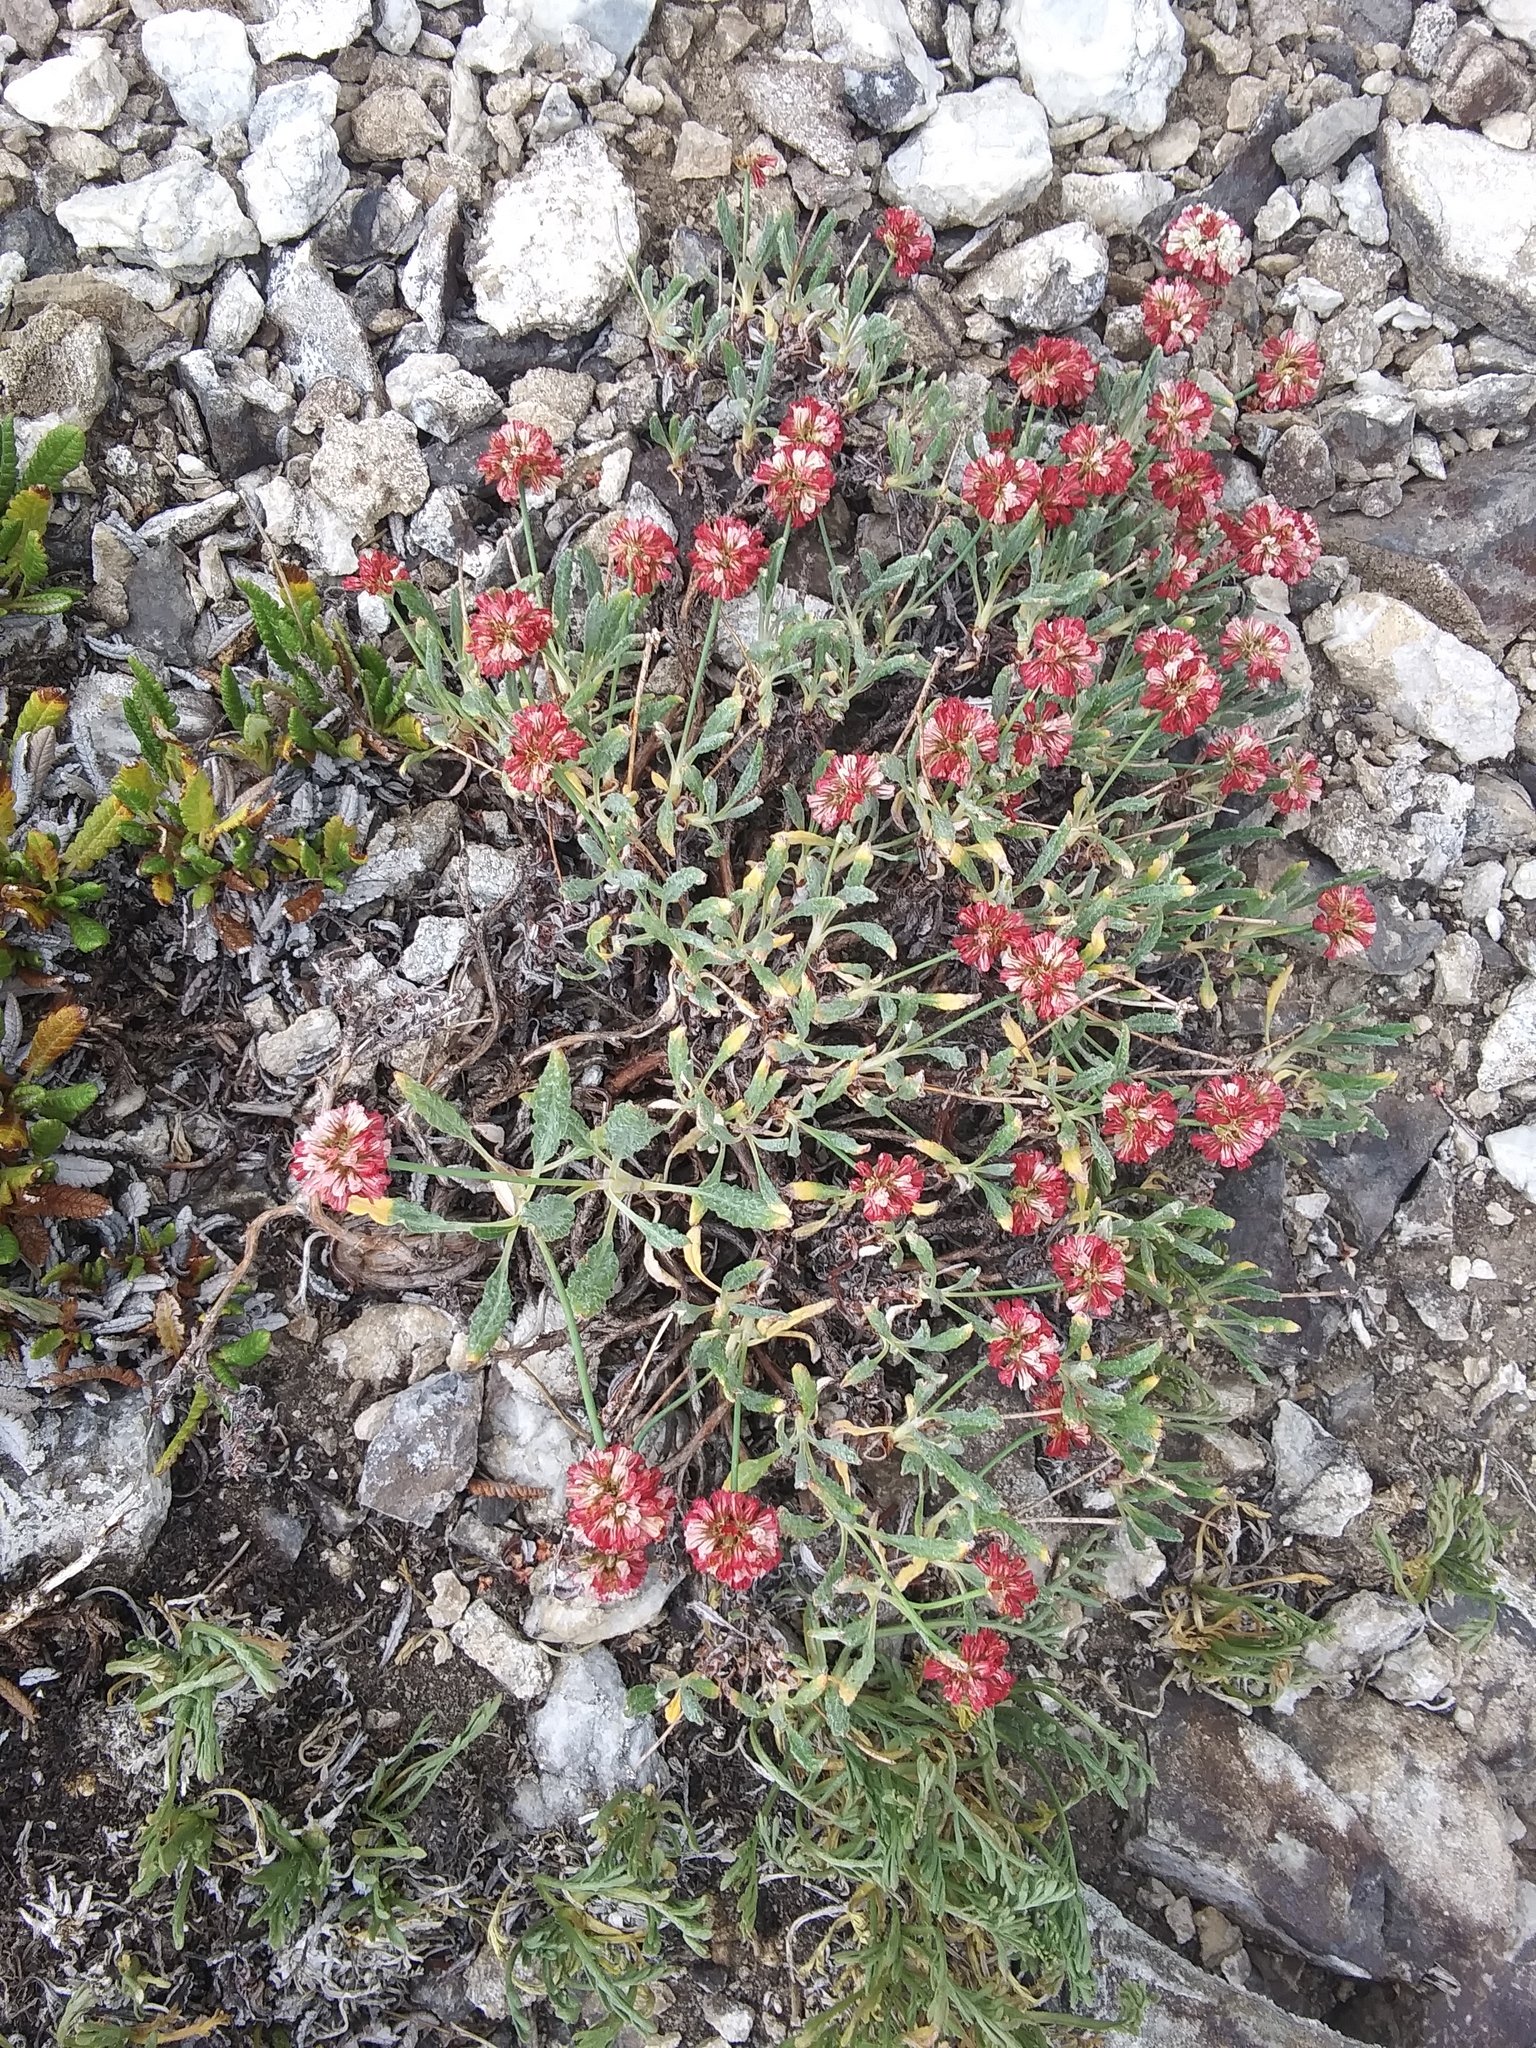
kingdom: Plantae
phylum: Tracheophyta
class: Magnoliopsida
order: Caryophyllales
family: Polygonaceae
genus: Eriogonum
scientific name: Eriogonum coloradense
